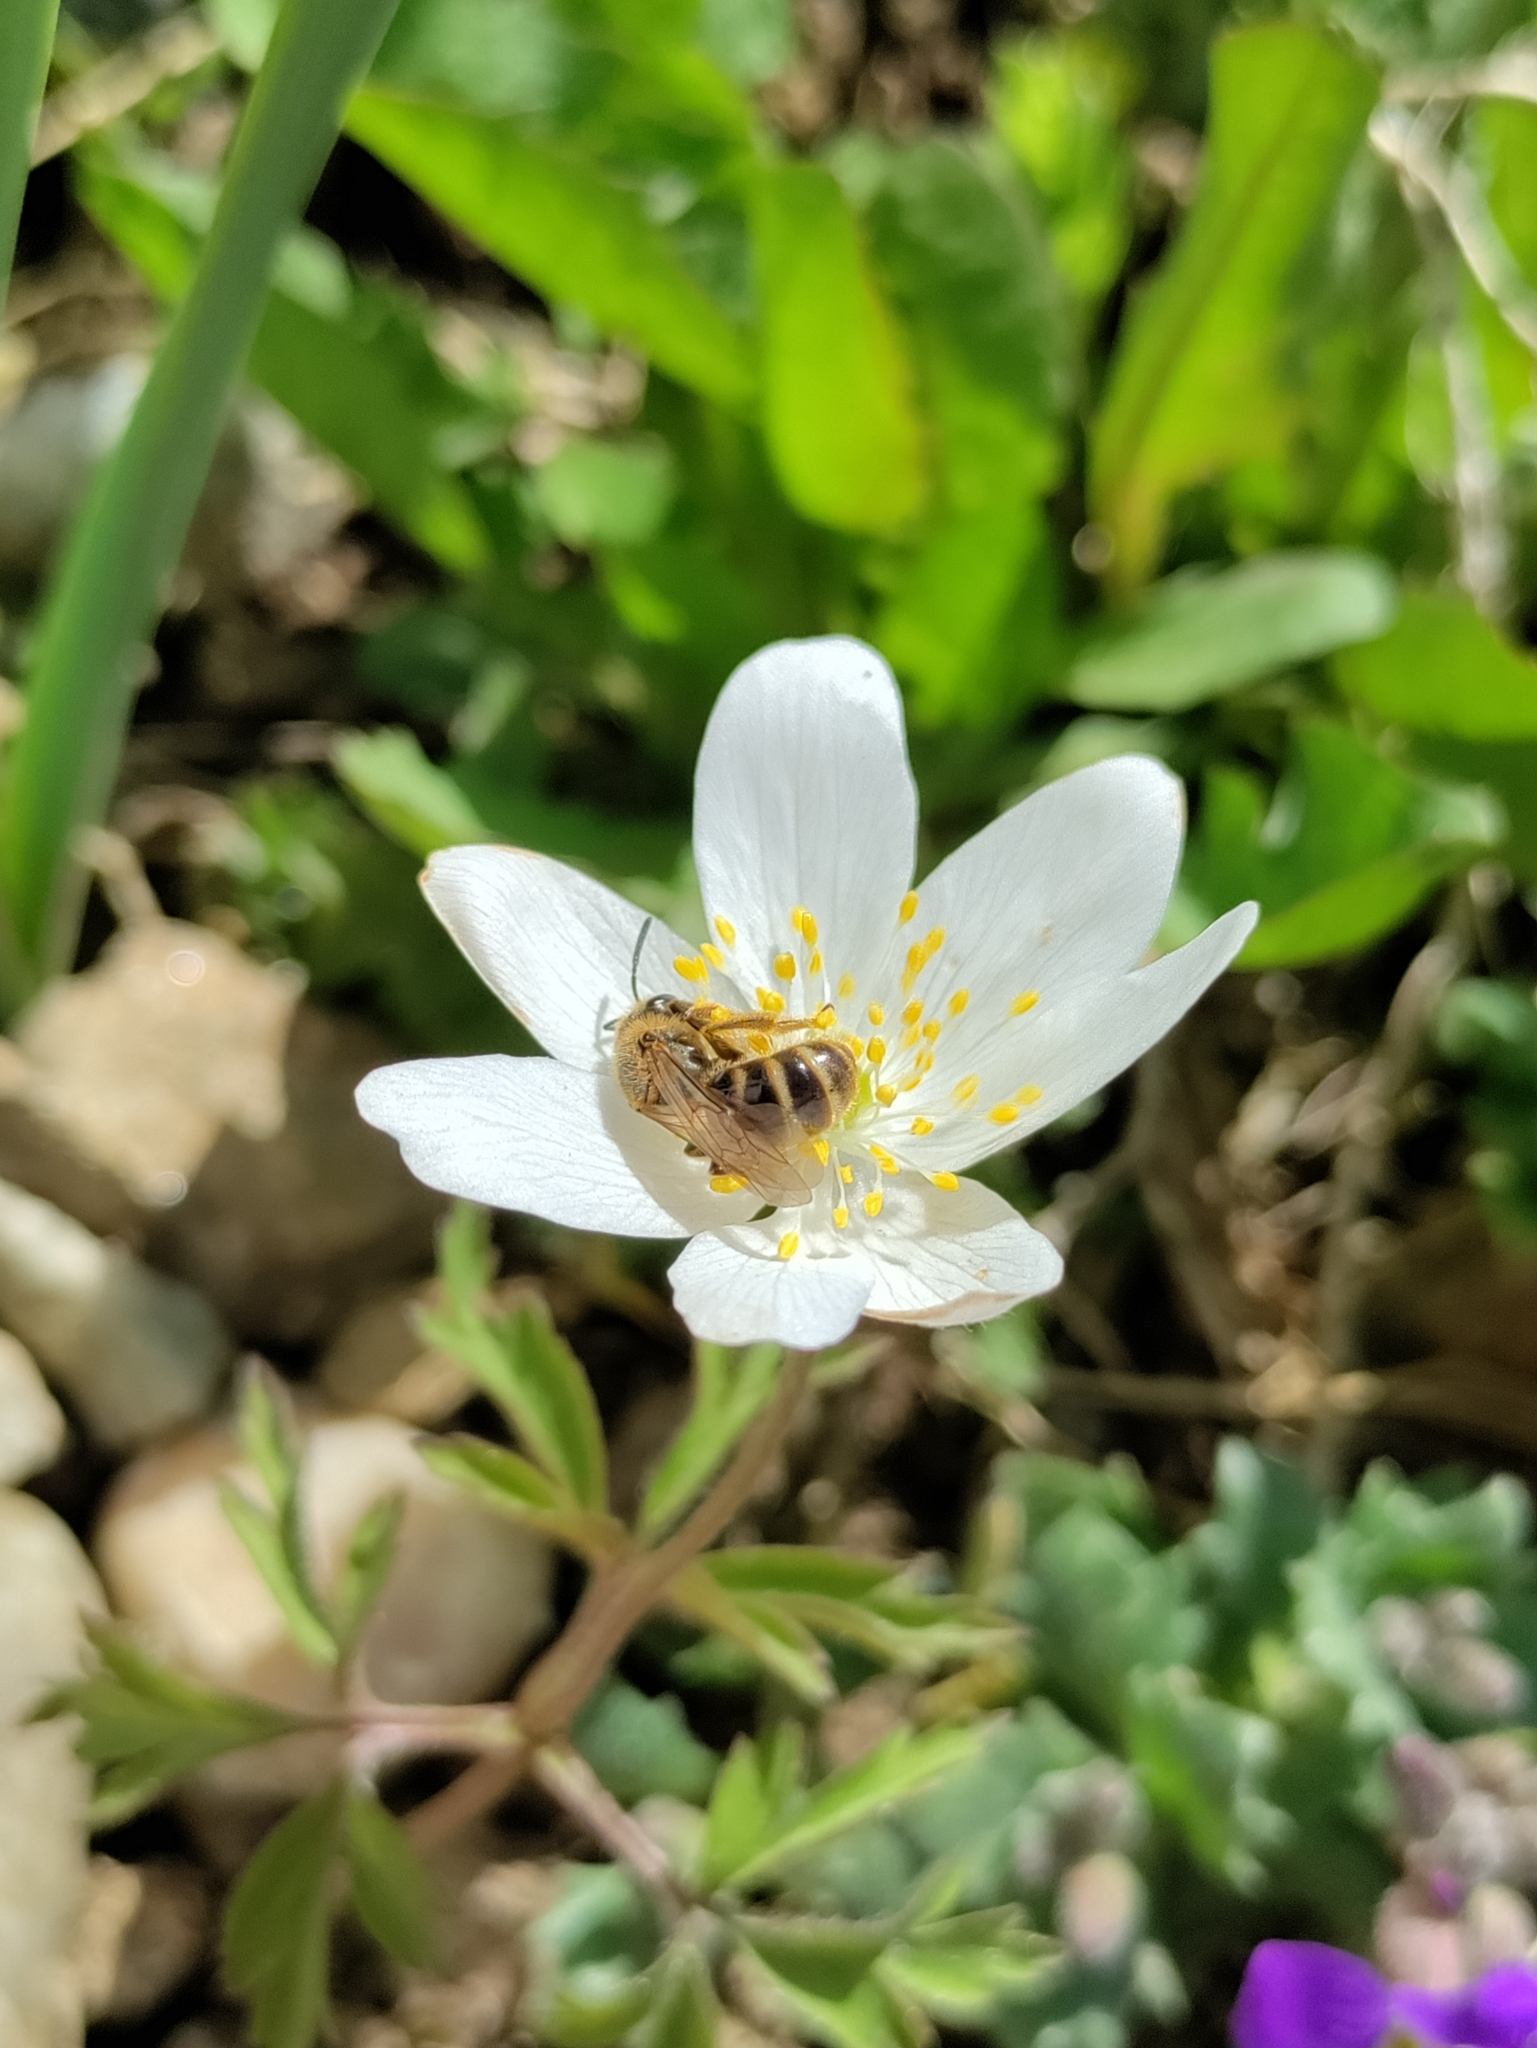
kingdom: Animalia
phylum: Arthropoda
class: Insecta
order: Hymenoptera
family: Halictidae
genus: Lasioglossum
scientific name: Lasioglossum
